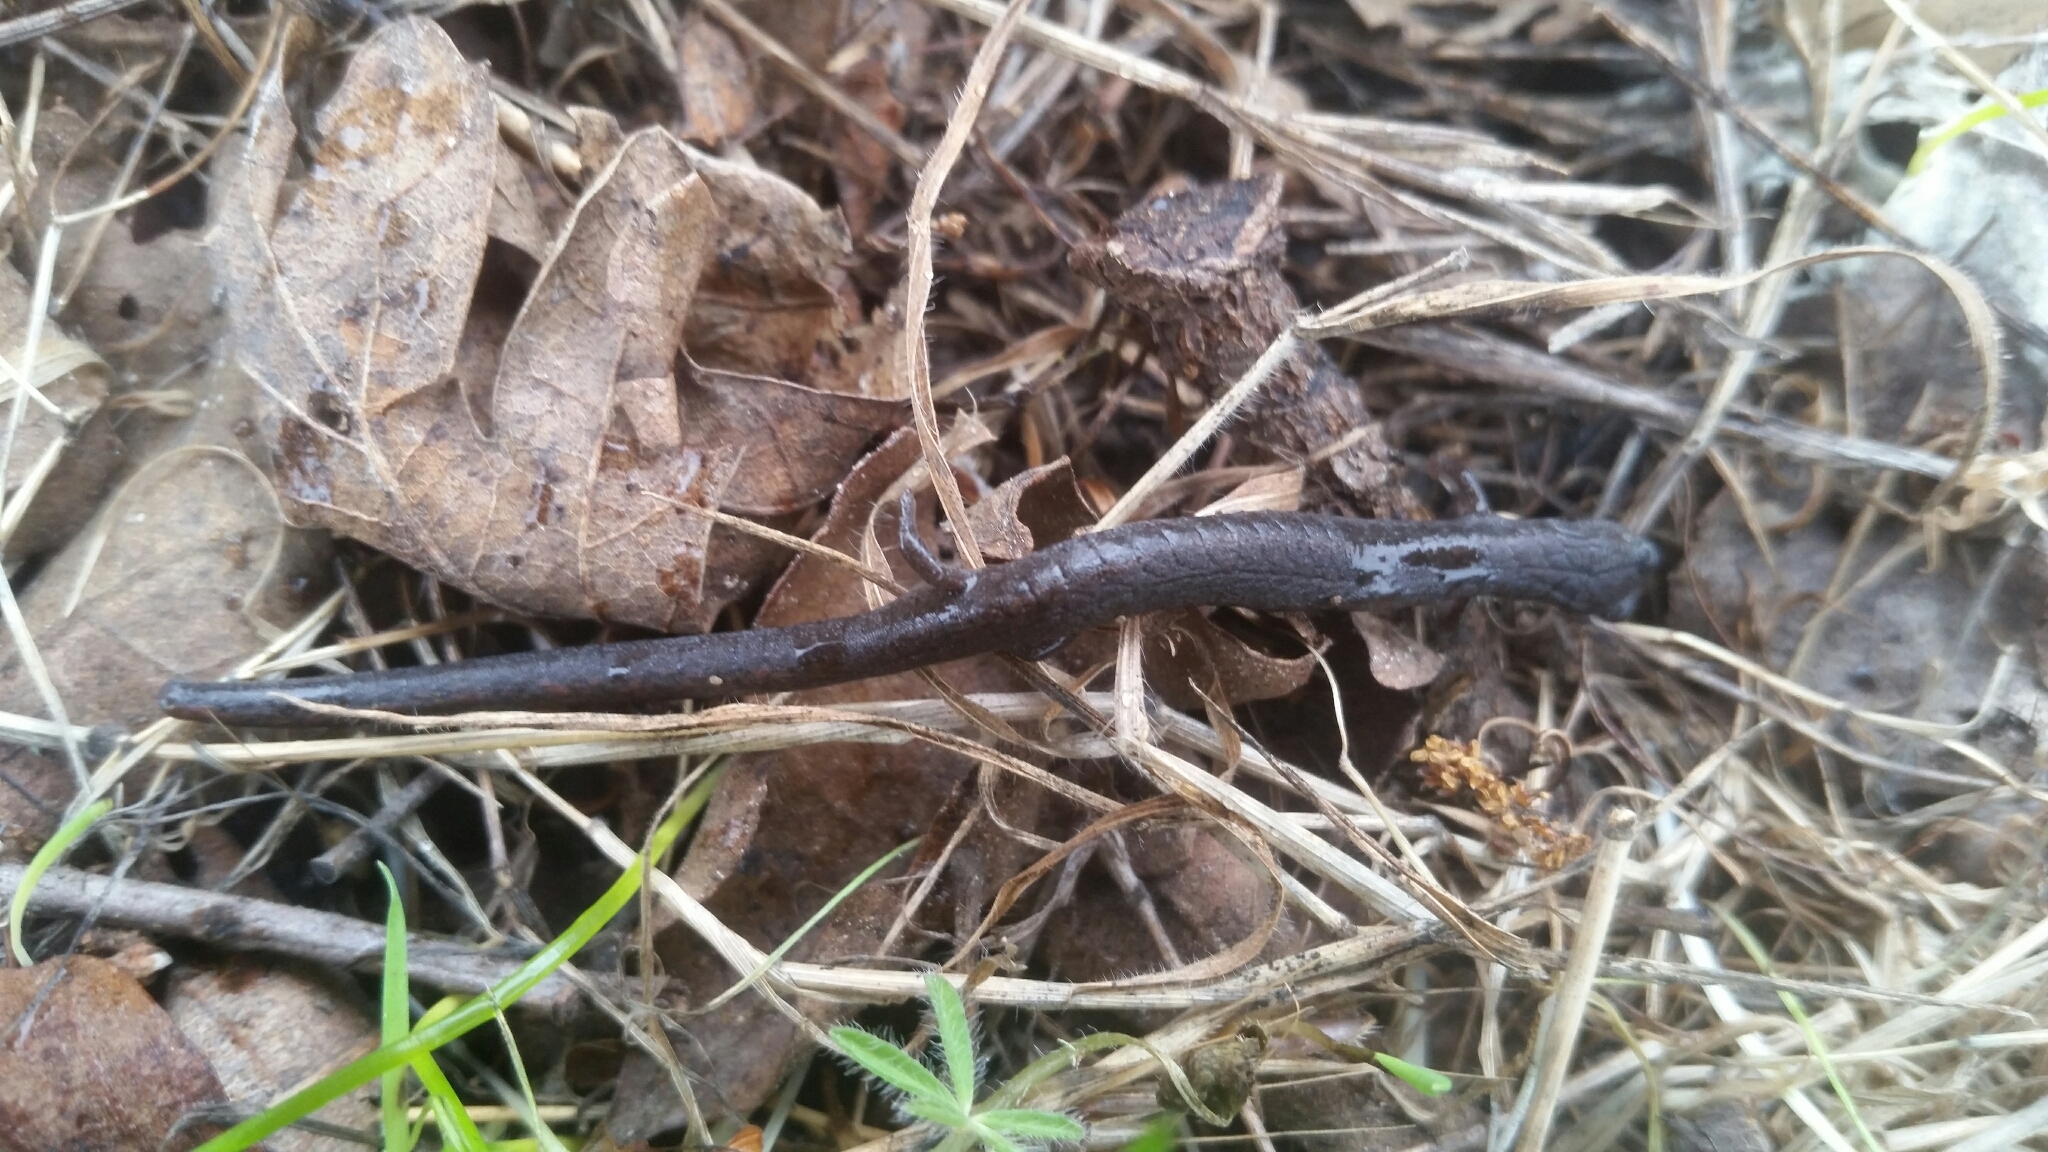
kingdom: Animalia
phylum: Chordata
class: Amphibia
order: Caudata
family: Plethodontidae
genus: Batrachoseps
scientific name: Batrachoseps attenuatus
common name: California slender salamander
